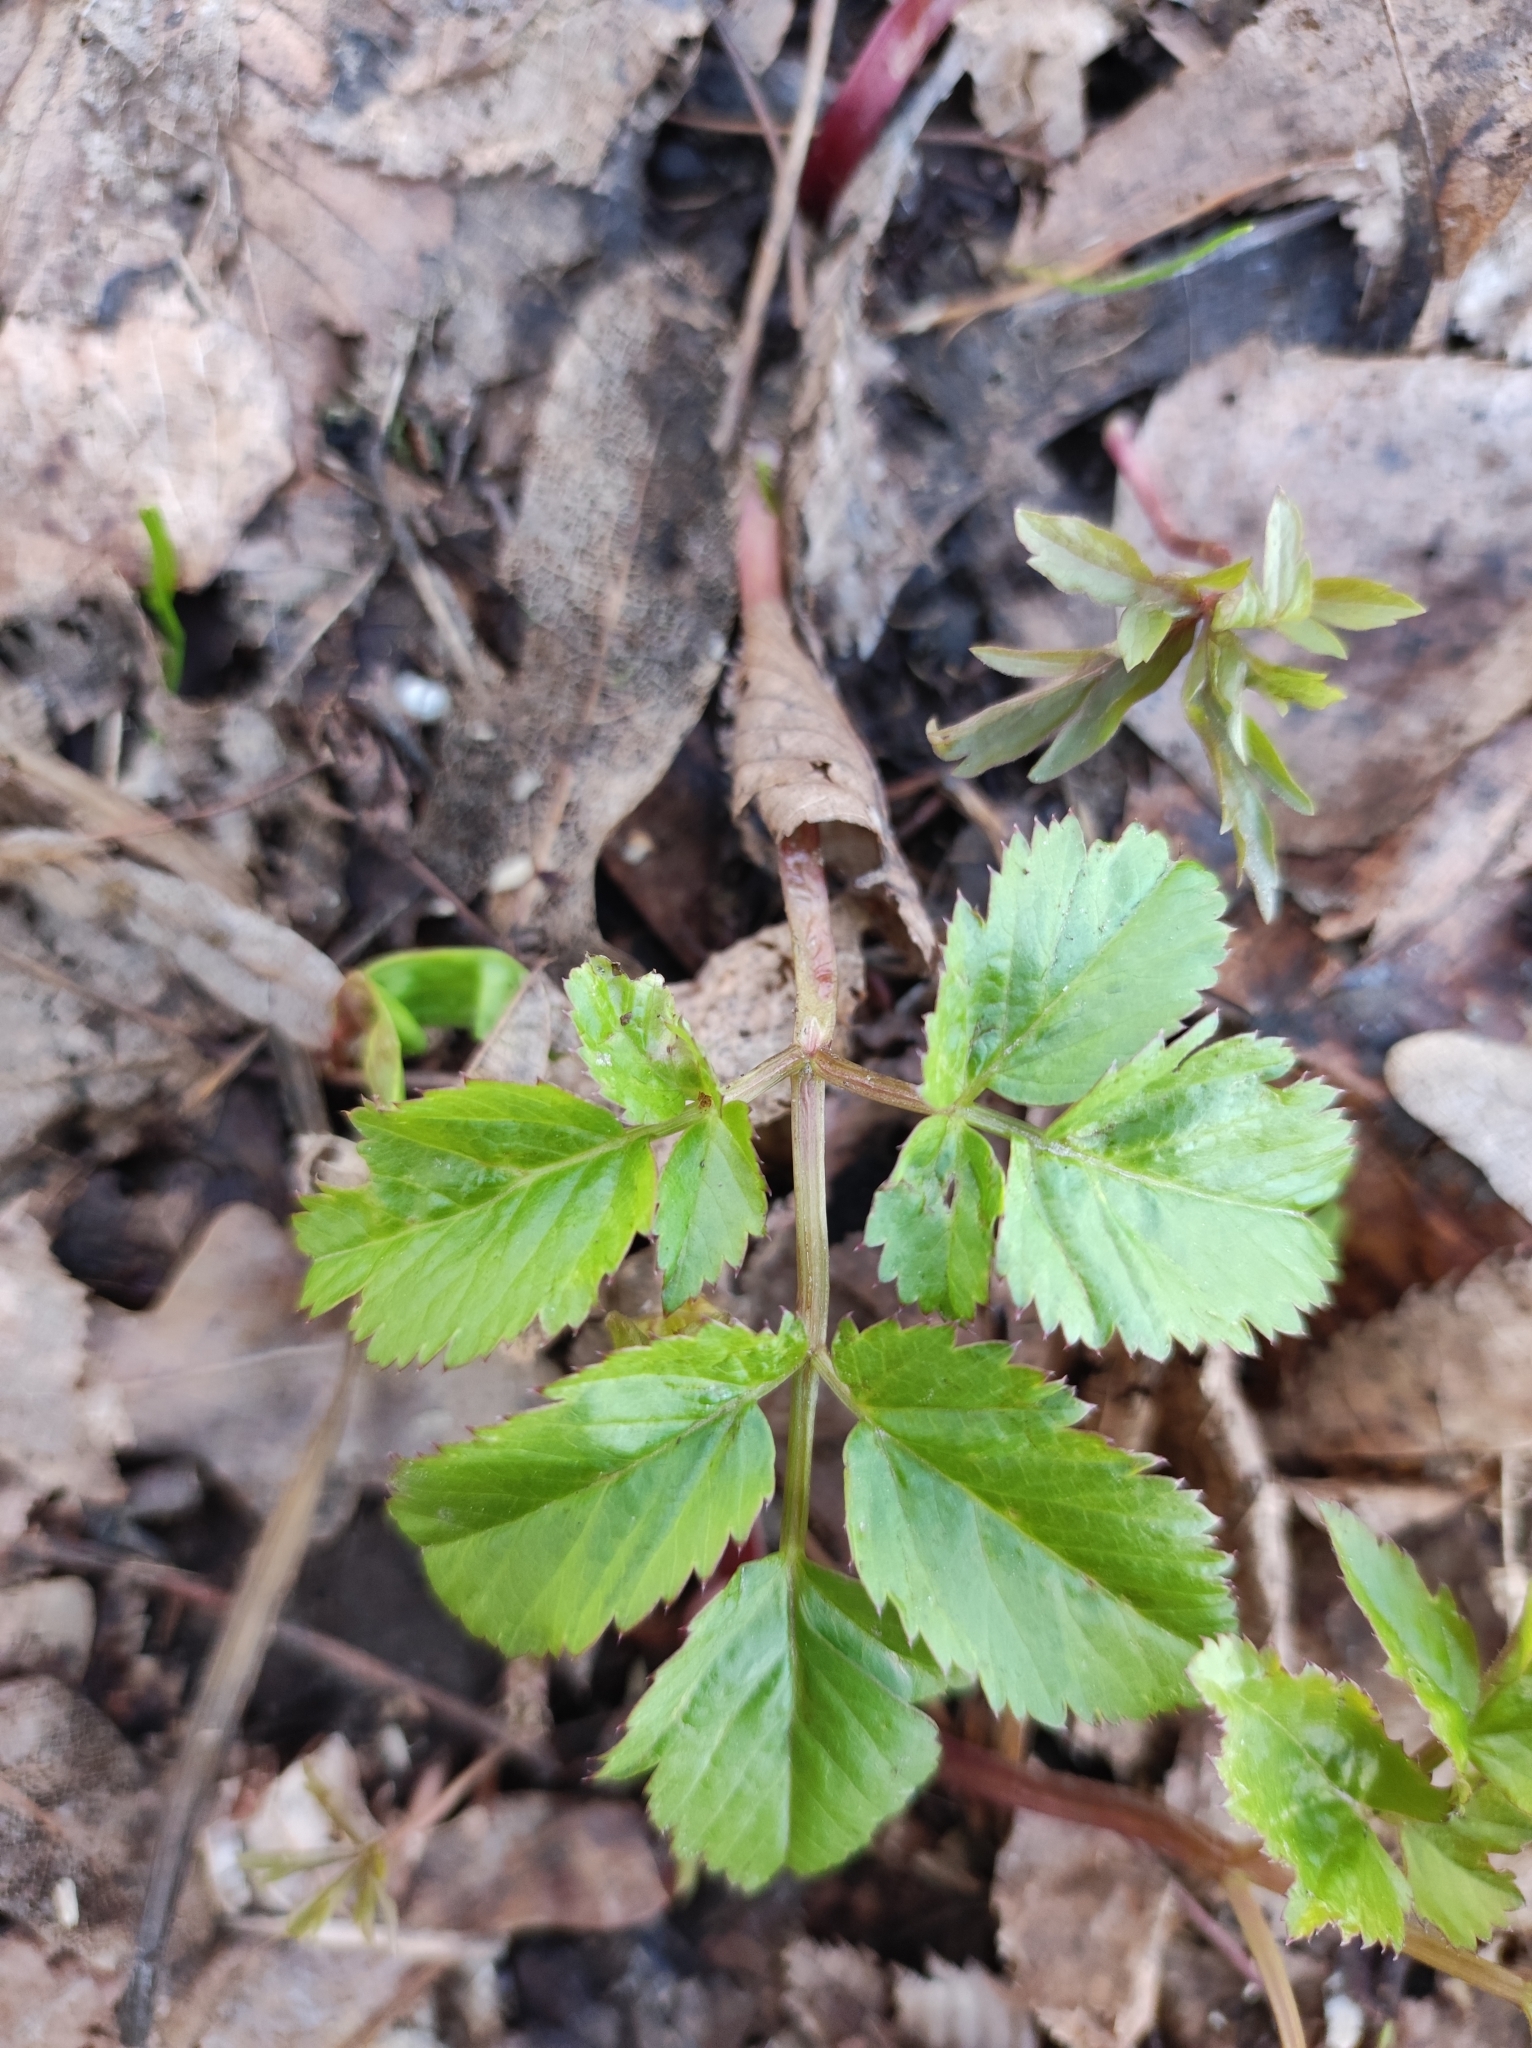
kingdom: Plantae
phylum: Tracheophyta
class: Magnoliopsida
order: Apiales
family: Apiaceae
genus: Aegopodium
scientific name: Aegopodium podagraria
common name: Ground-elder
